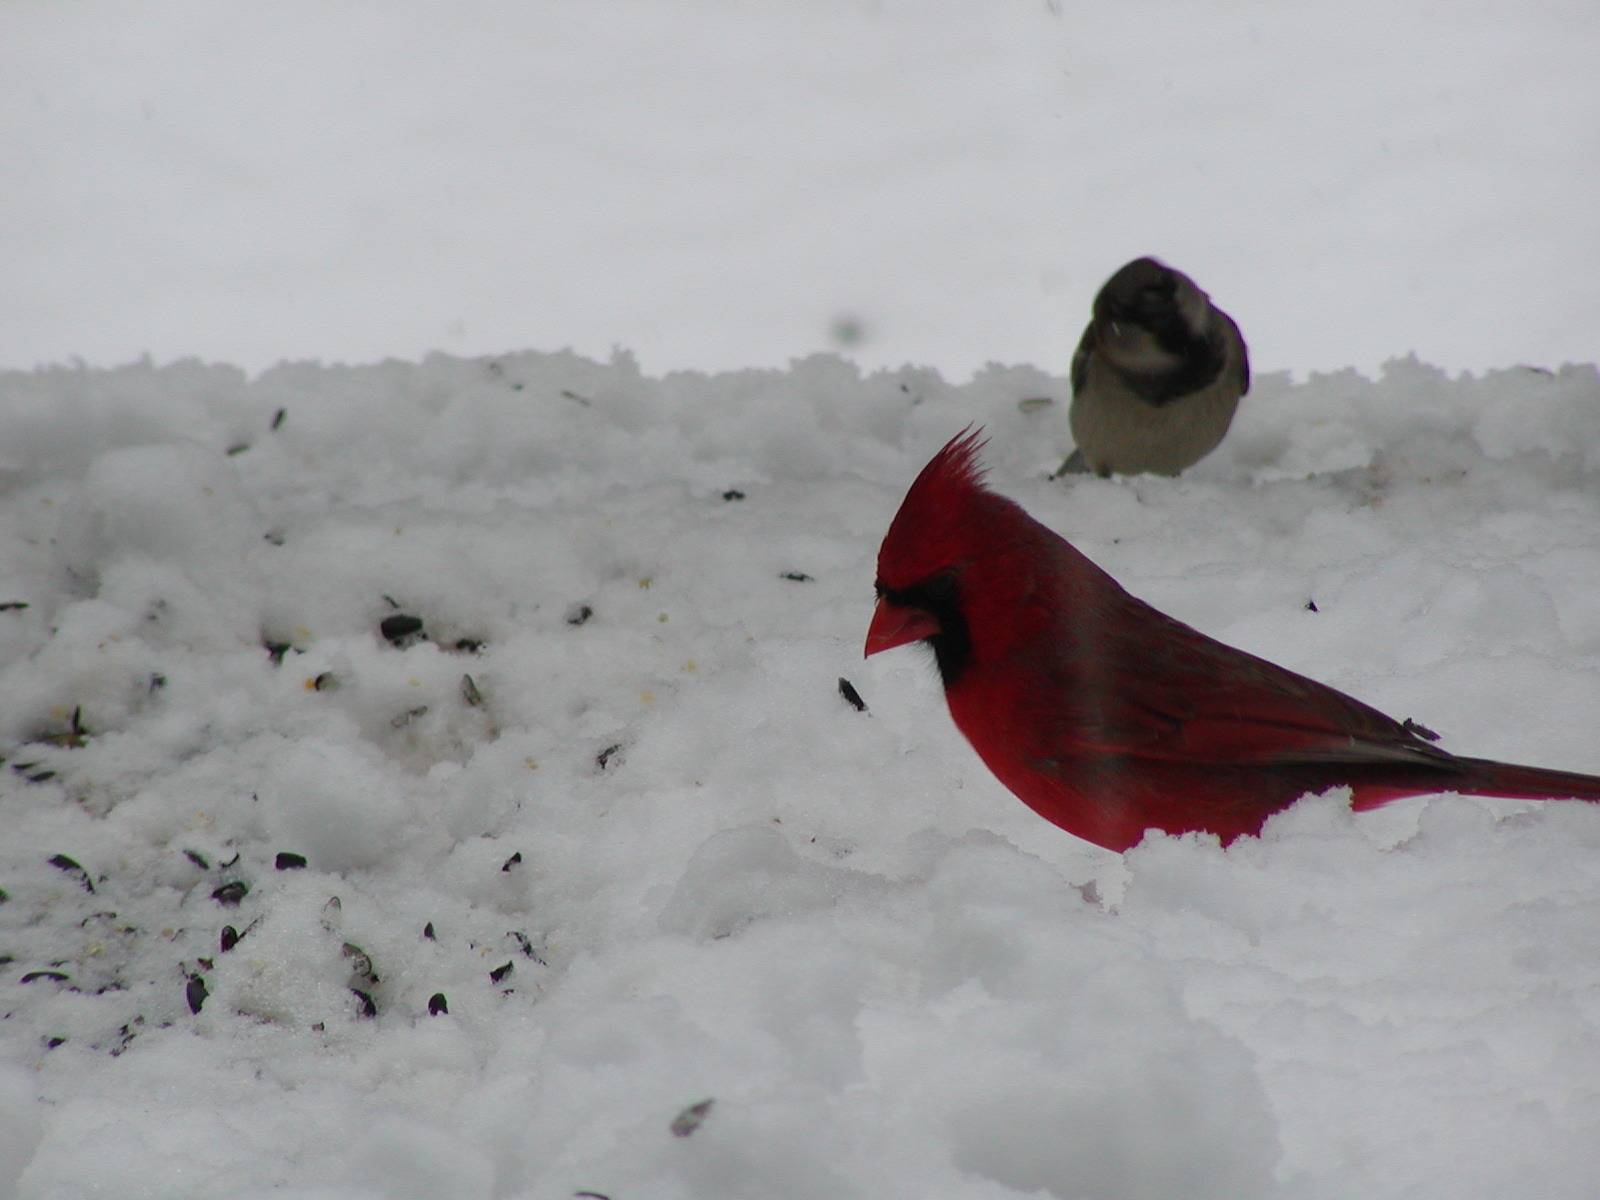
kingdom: Animalia
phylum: Chordata
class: Aves
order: Passeriformes
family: Cardinalidae
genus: Cardinalis
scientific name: Cardinalis cardinalis
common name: Northern cardinal
